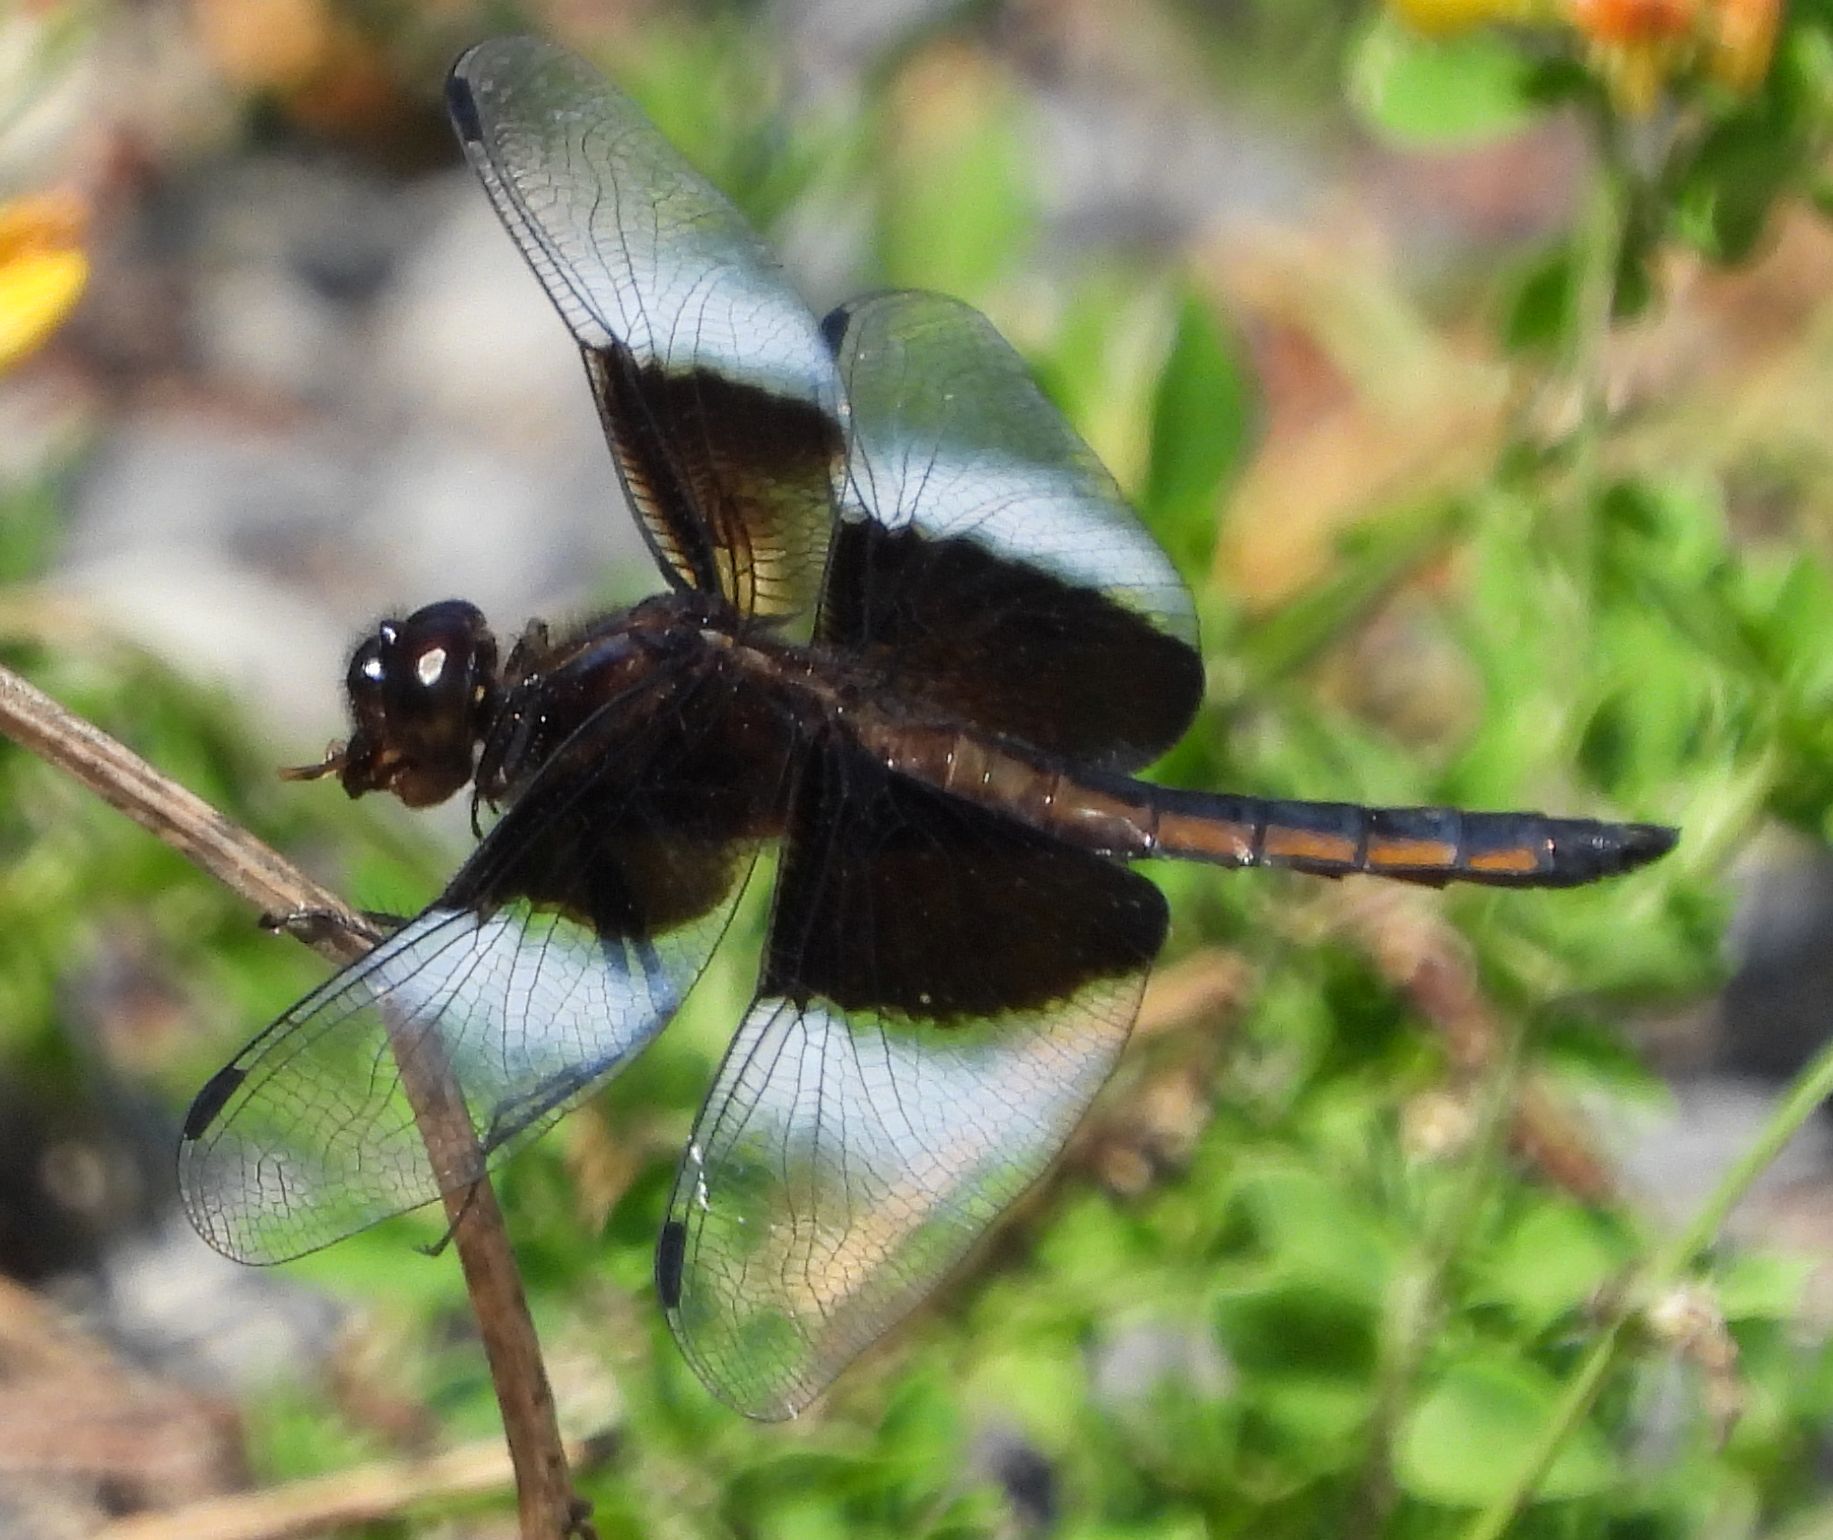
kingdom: Animalia
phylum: Arthropoda
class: Insecta
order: Odonata
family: Libellulidae
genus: Libellula
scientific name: Libellula luctuosa
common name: Widow skimmer
